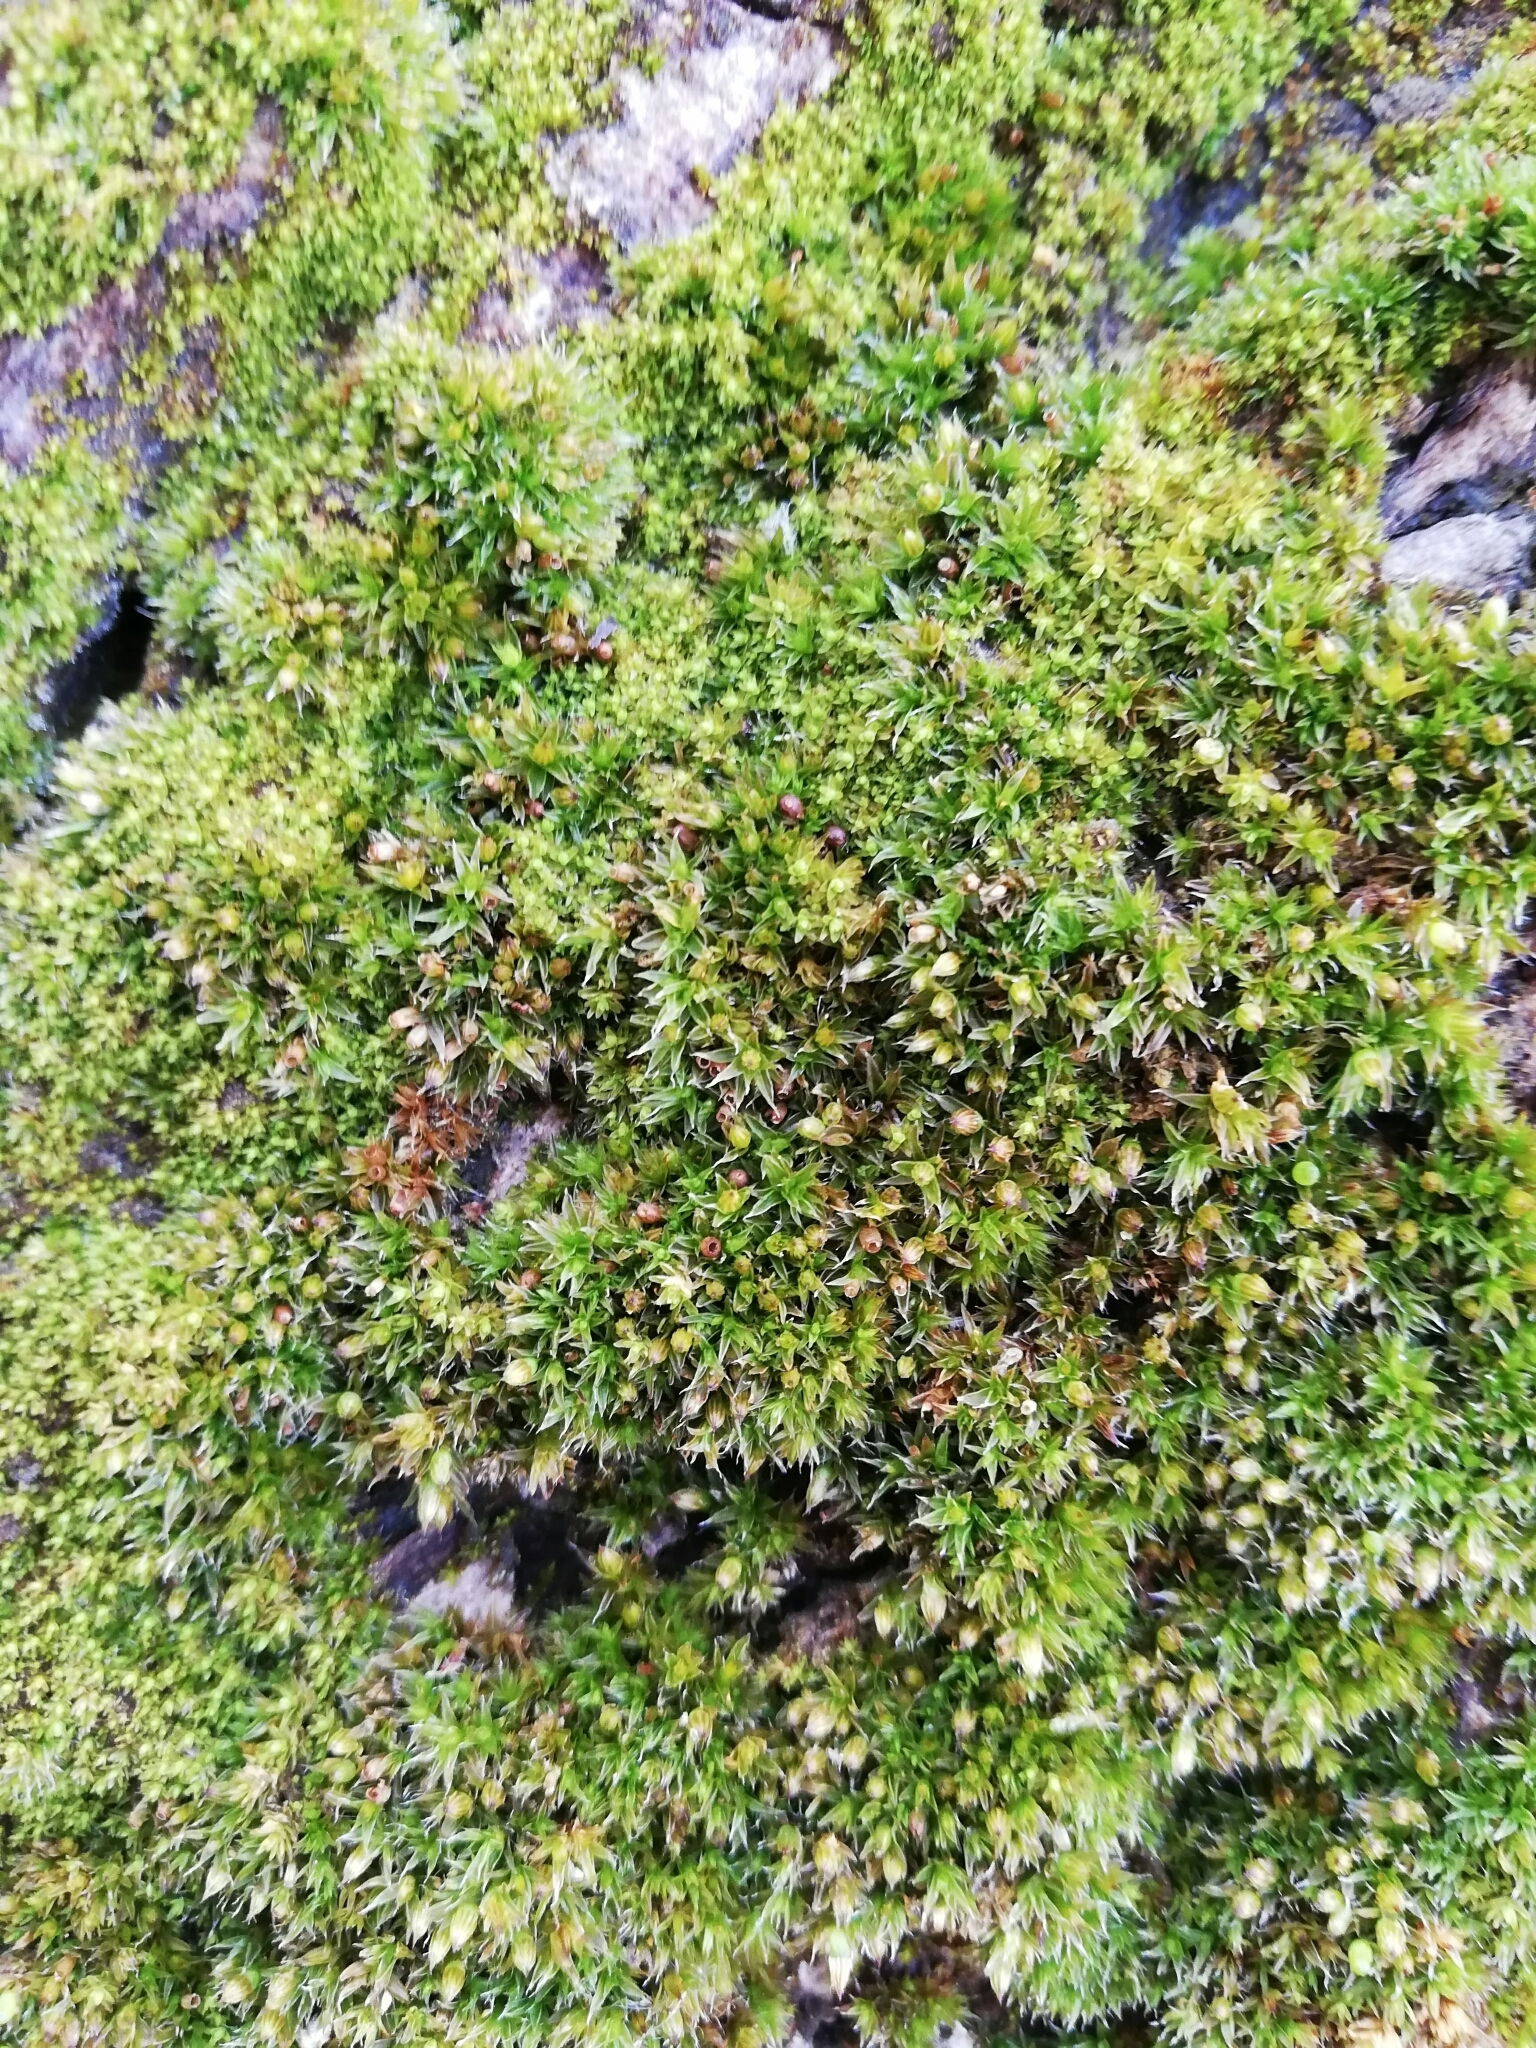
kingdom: Plantae
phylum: Bryophyta
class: Bryopsida
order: Orthotrichales
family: Orthotrichaceae
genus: Orthotrichum
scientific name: Orthotrichum diaphanum
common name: White-tipped bristle-moss
